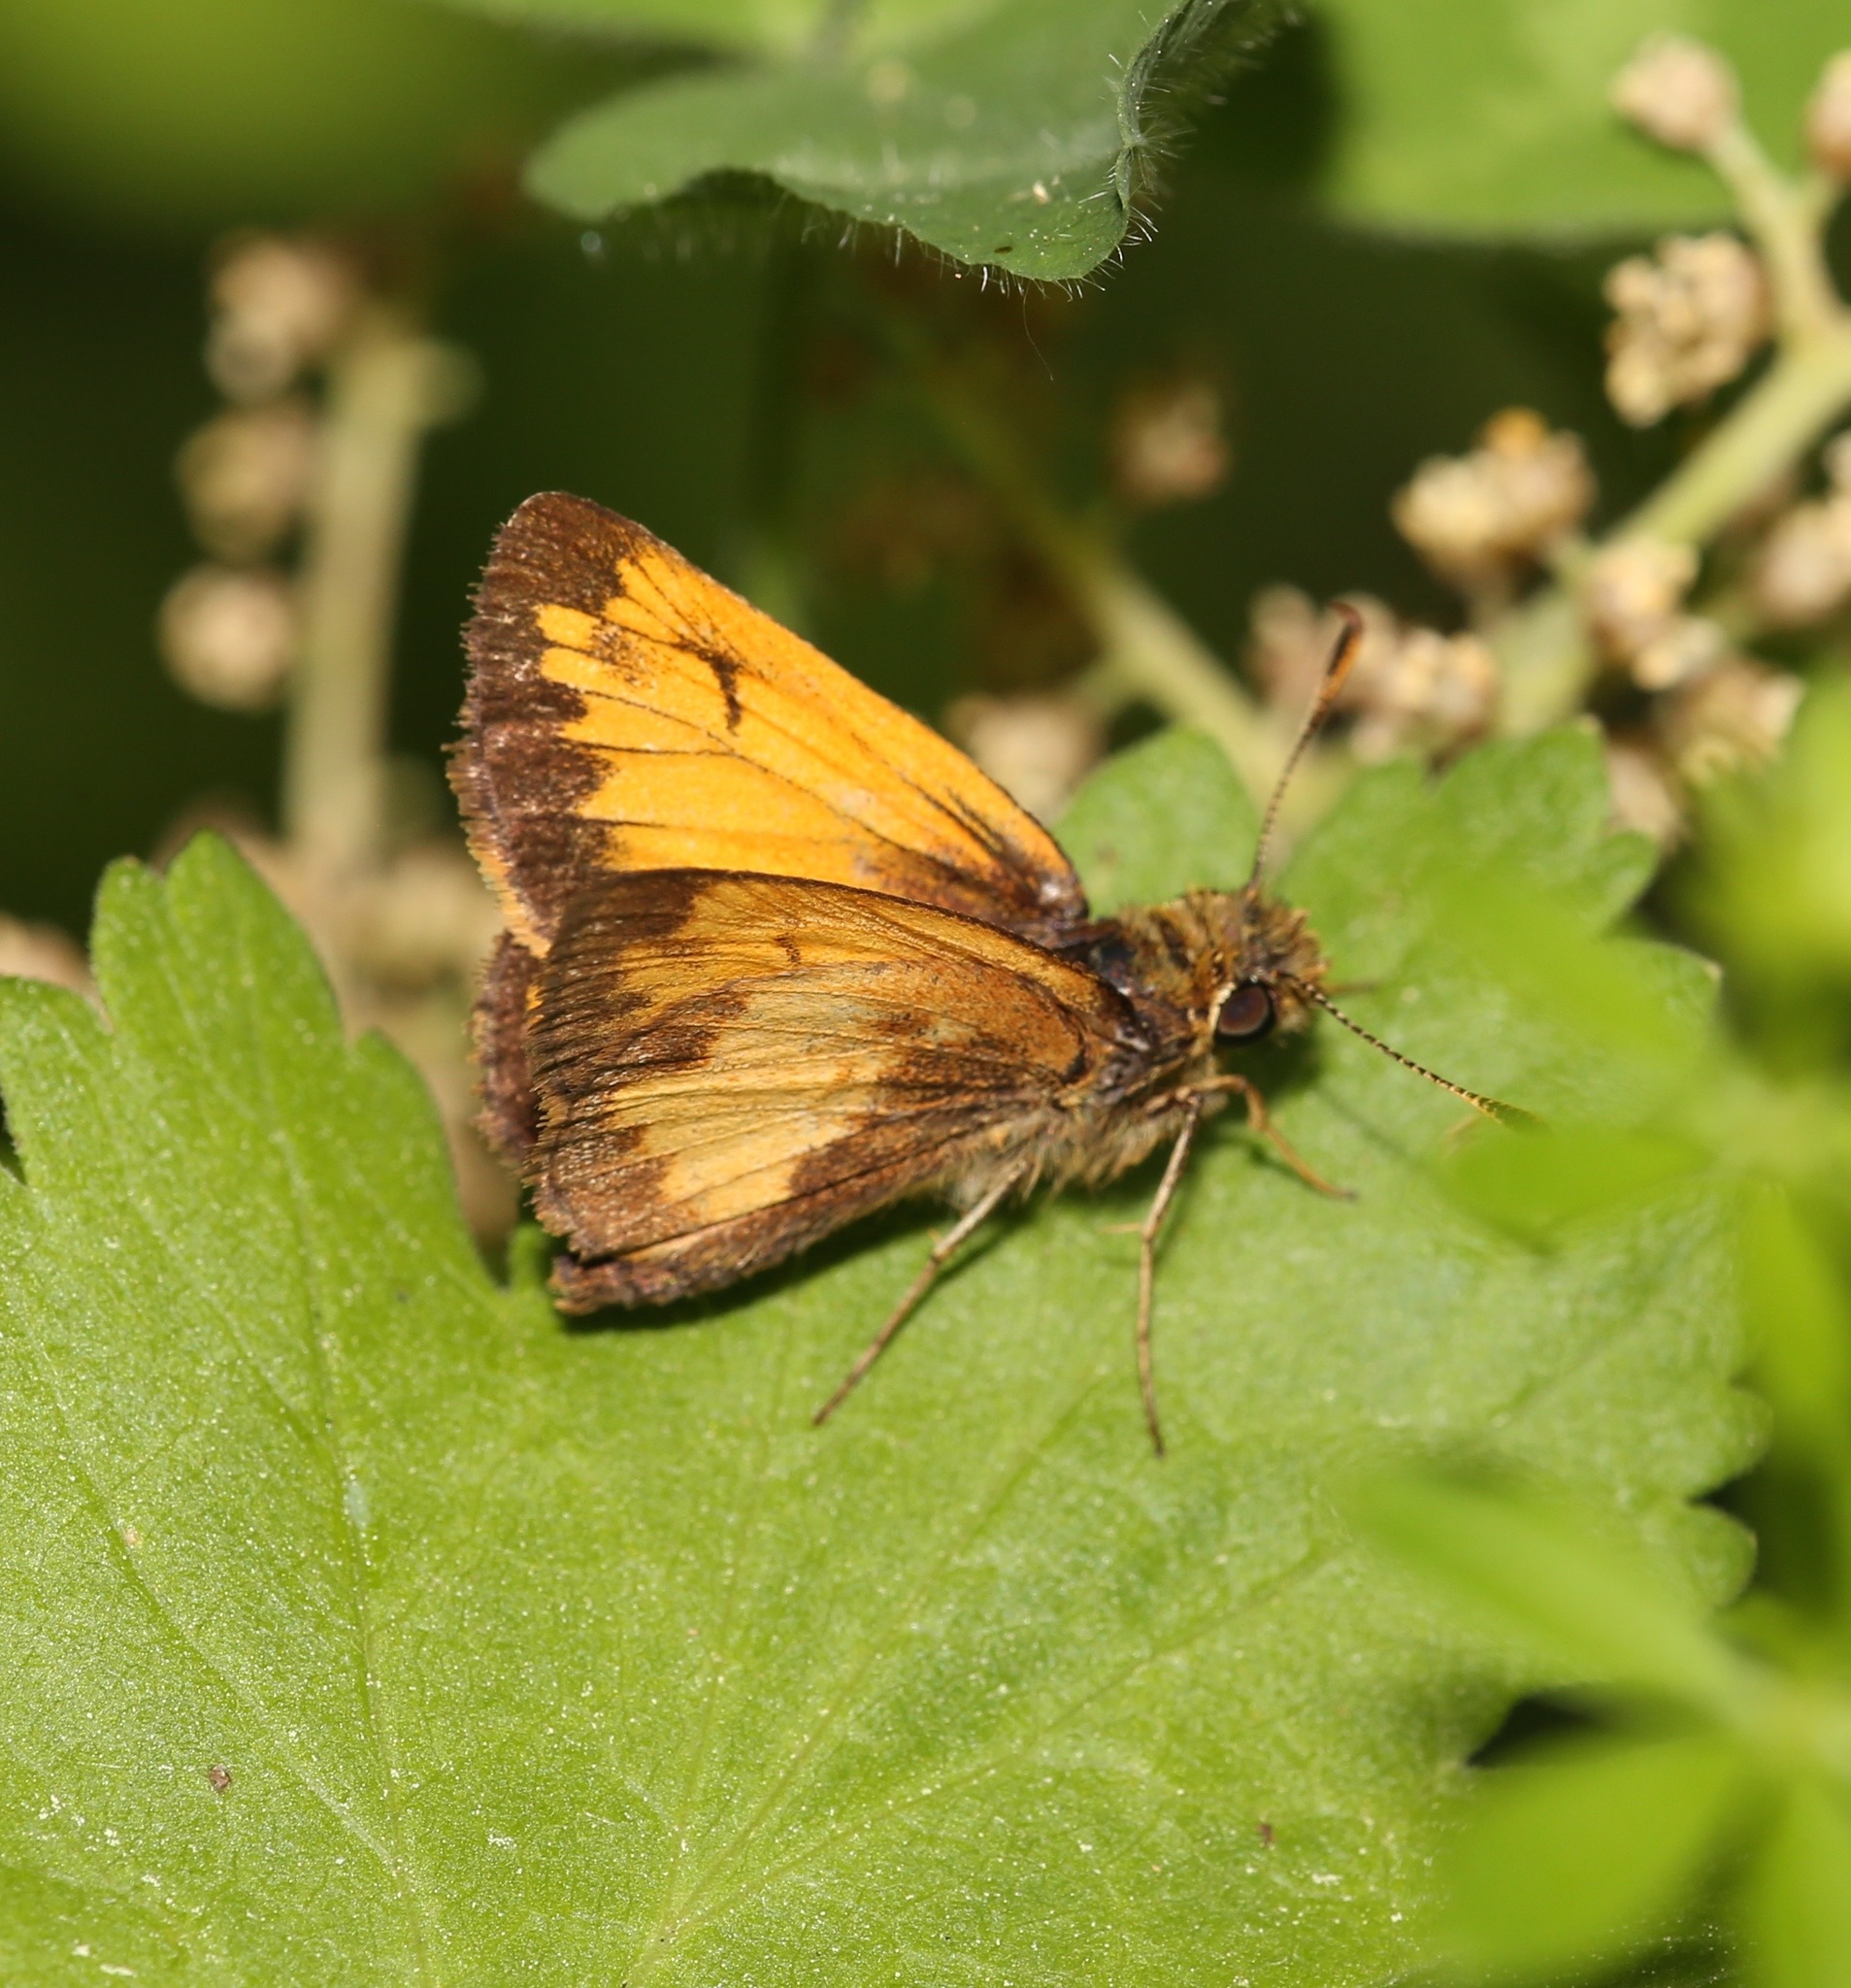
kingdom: Animalia
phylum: Arthropoda
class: Insecta
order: Lepidoptera
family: Hesperiidae
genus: Lon
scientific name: Lon hobomok
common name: Hobomok skipper
